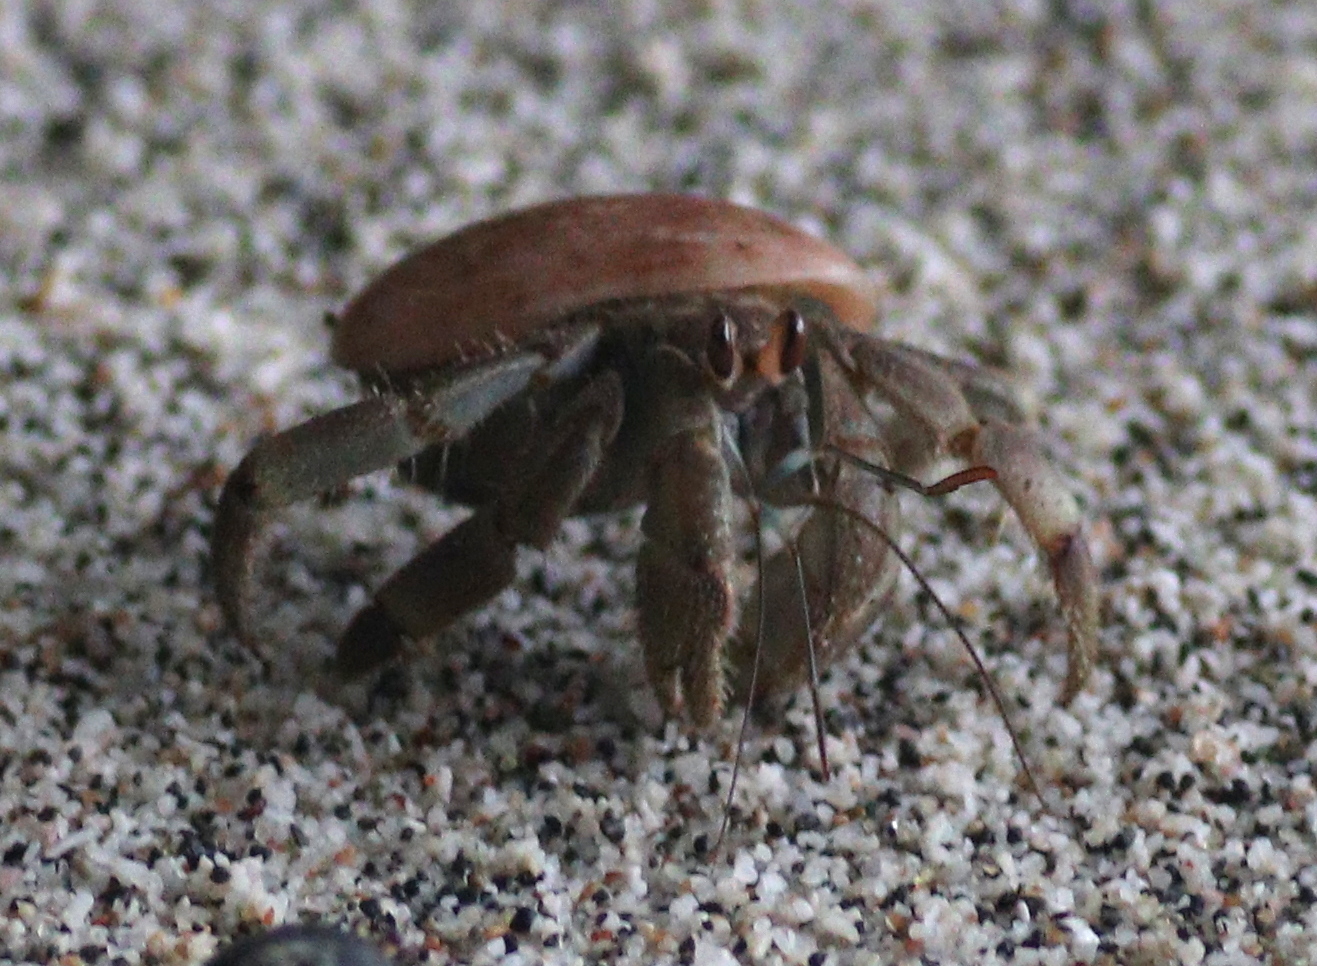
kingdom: Animalia
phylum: Arthropoda
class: Malacostraca
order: Decapoda
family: Coenobitidae
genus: Coenobita
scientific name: Coenobita compressus
